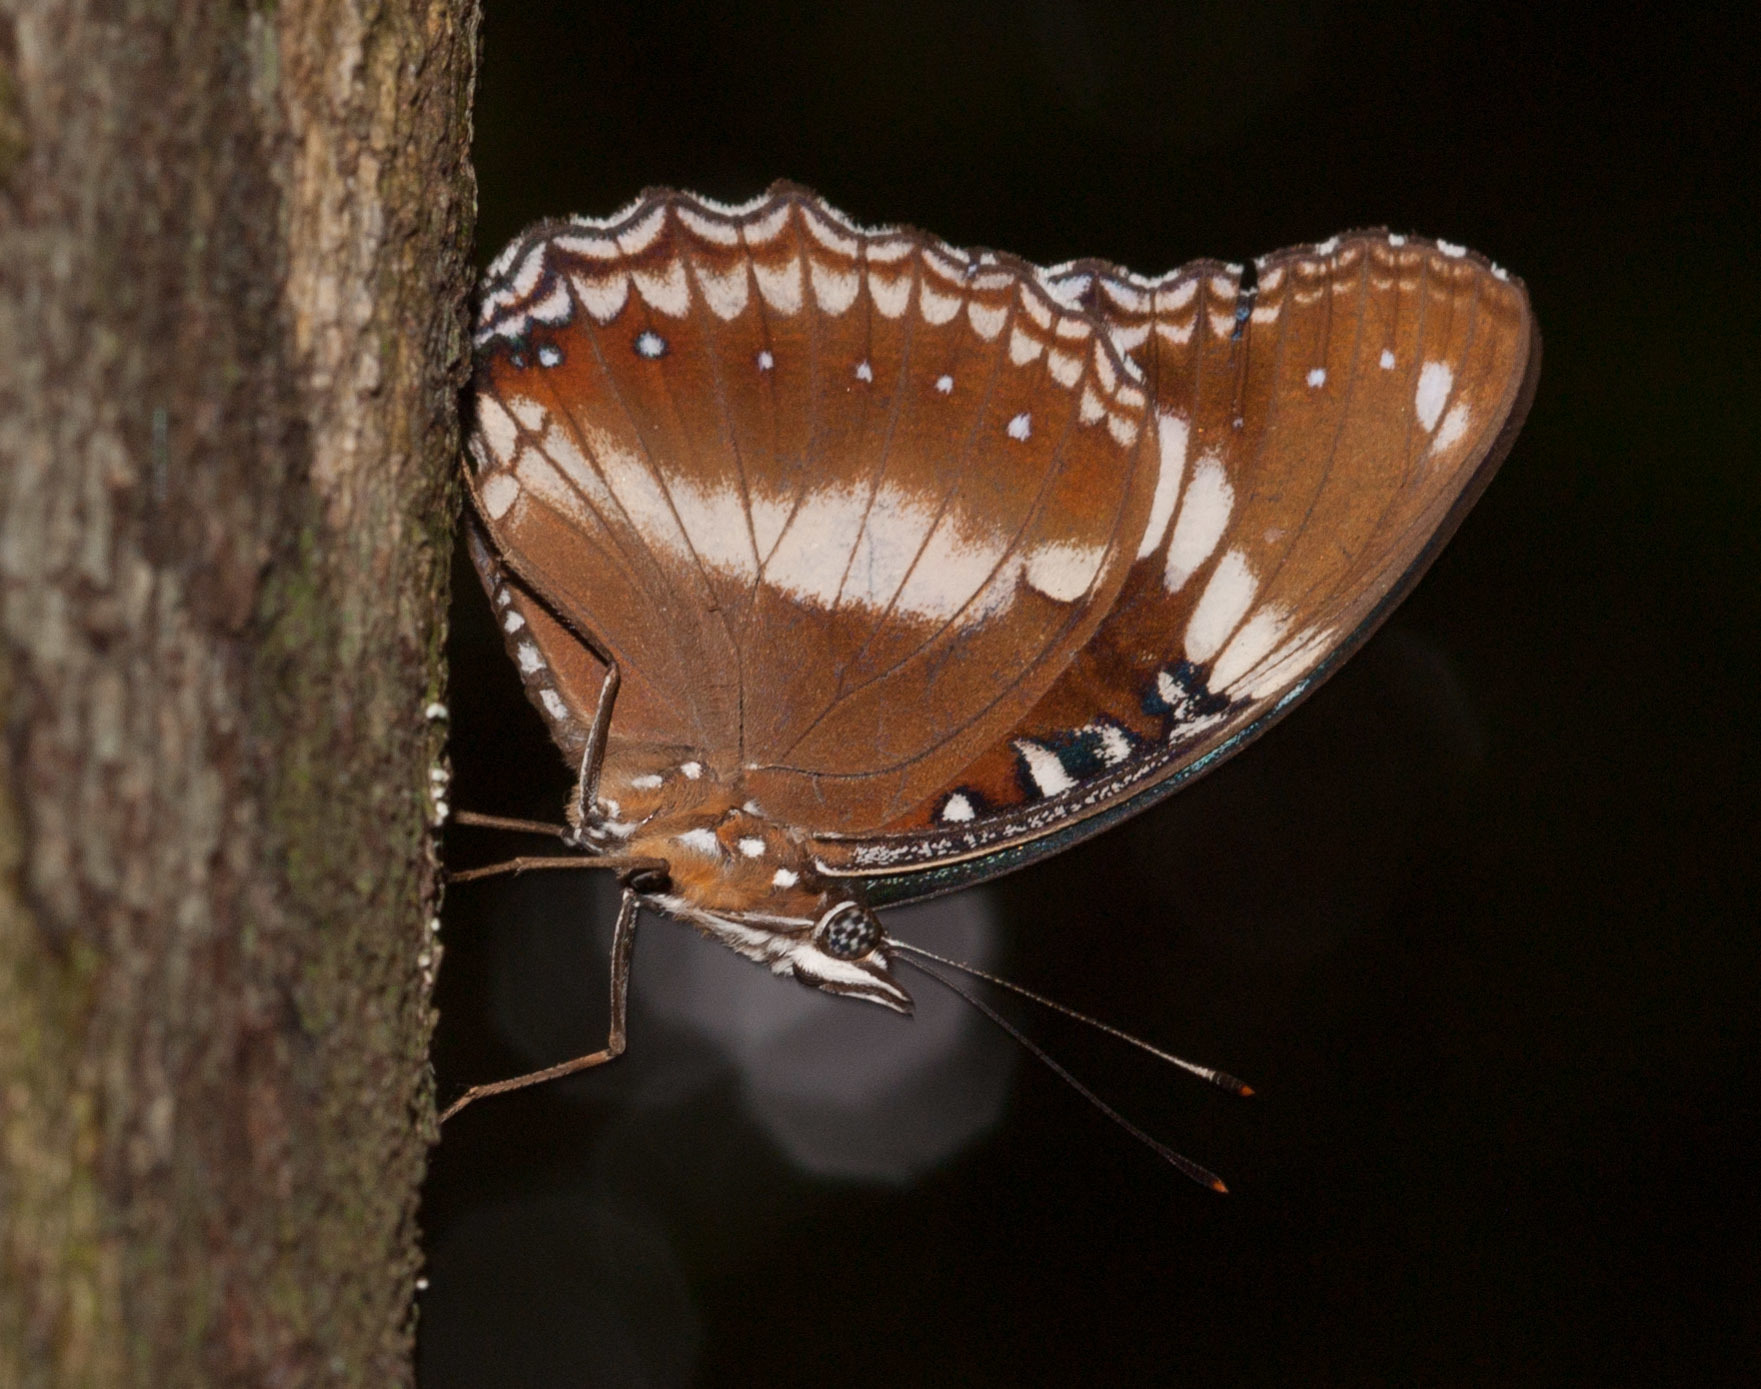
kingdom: Animalia
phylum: Arthropoda
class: Insecta
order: Lepidoptera
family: Nymphalidae
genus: Hypolimnas
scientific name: Hypolimnas bolina
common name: Great eggfly
